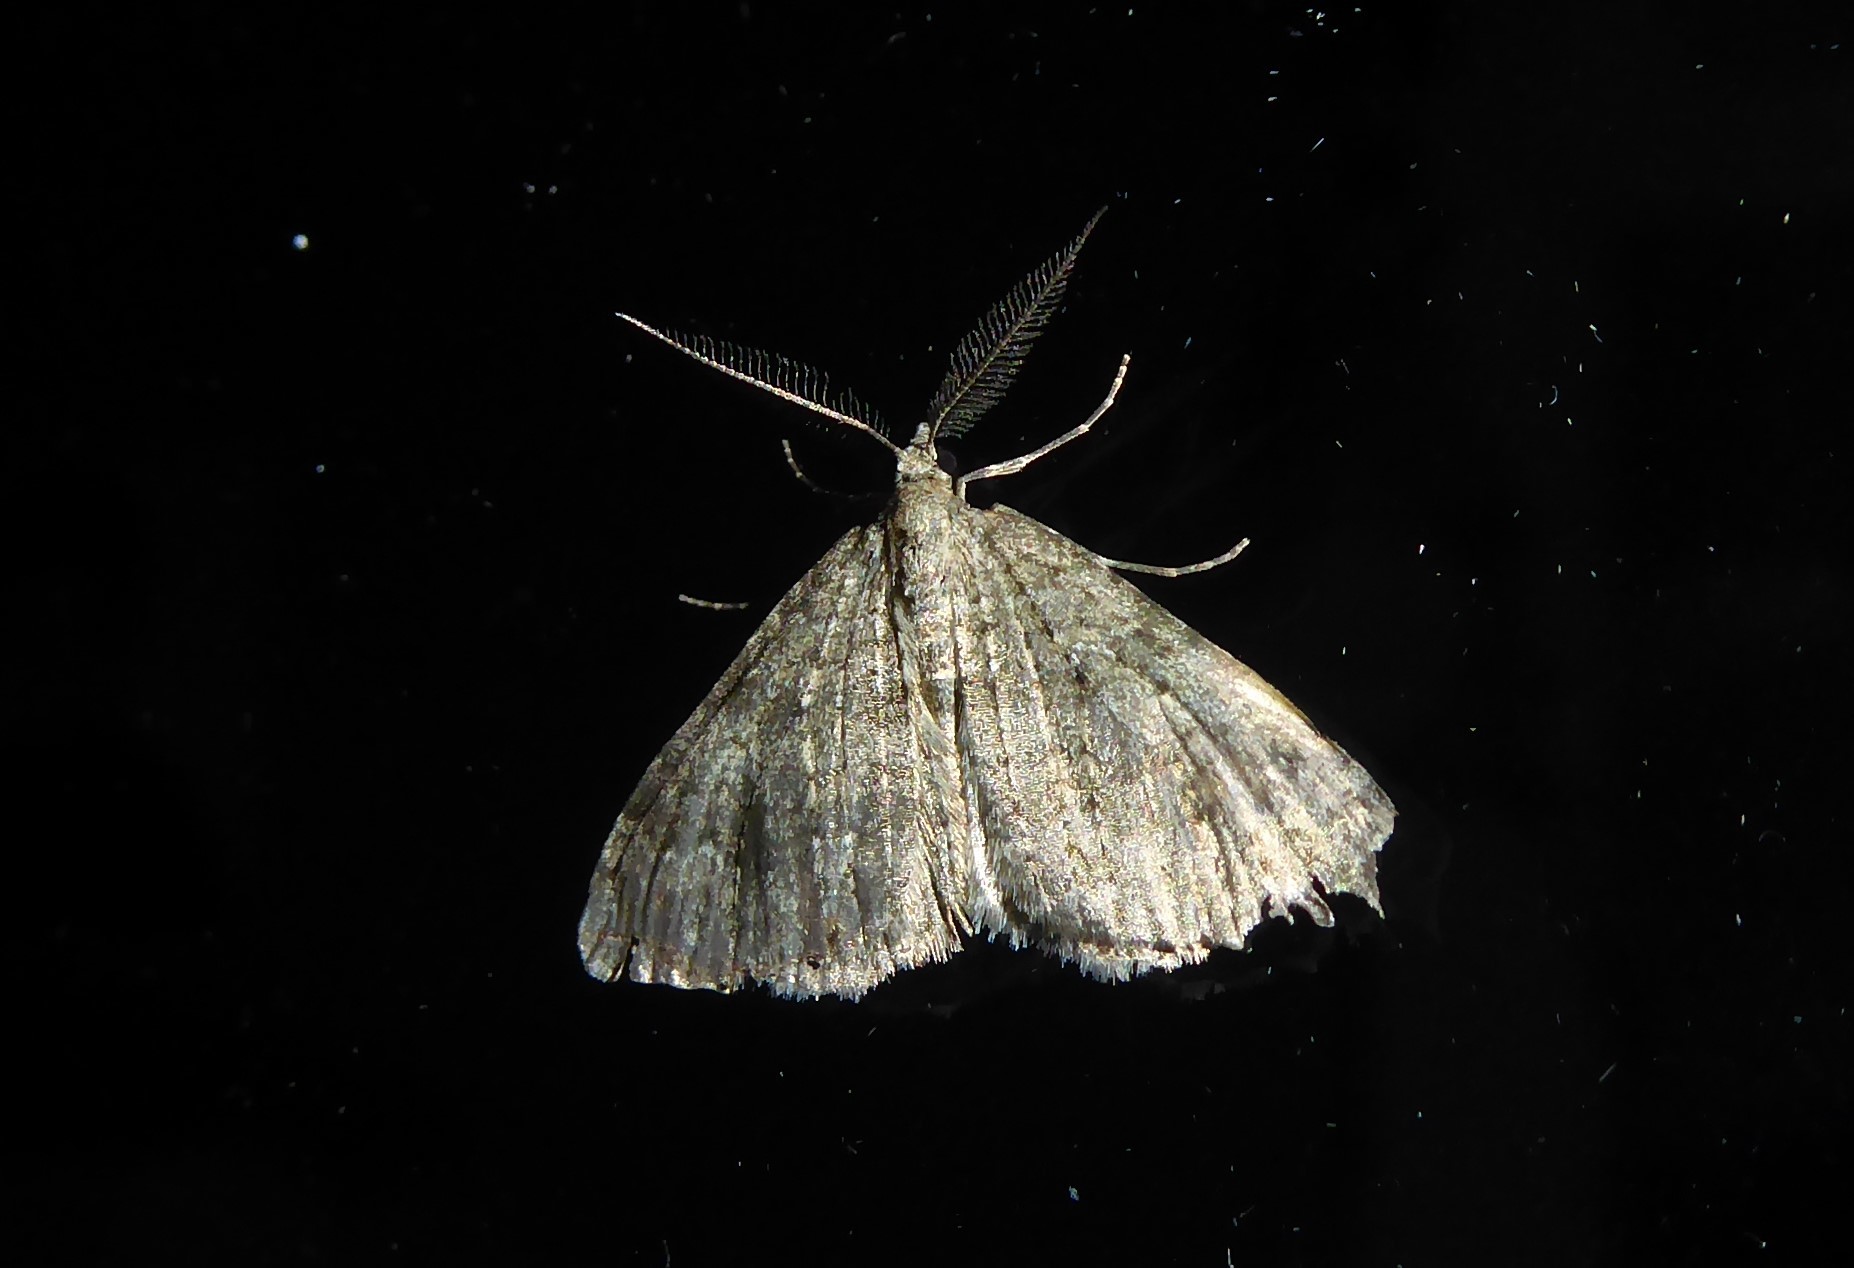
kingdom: Animalia
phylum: Arthropoda
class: Insecta
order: Lepidoptera
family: Geometridae
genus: Helastia
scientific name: Helastia corcularia
